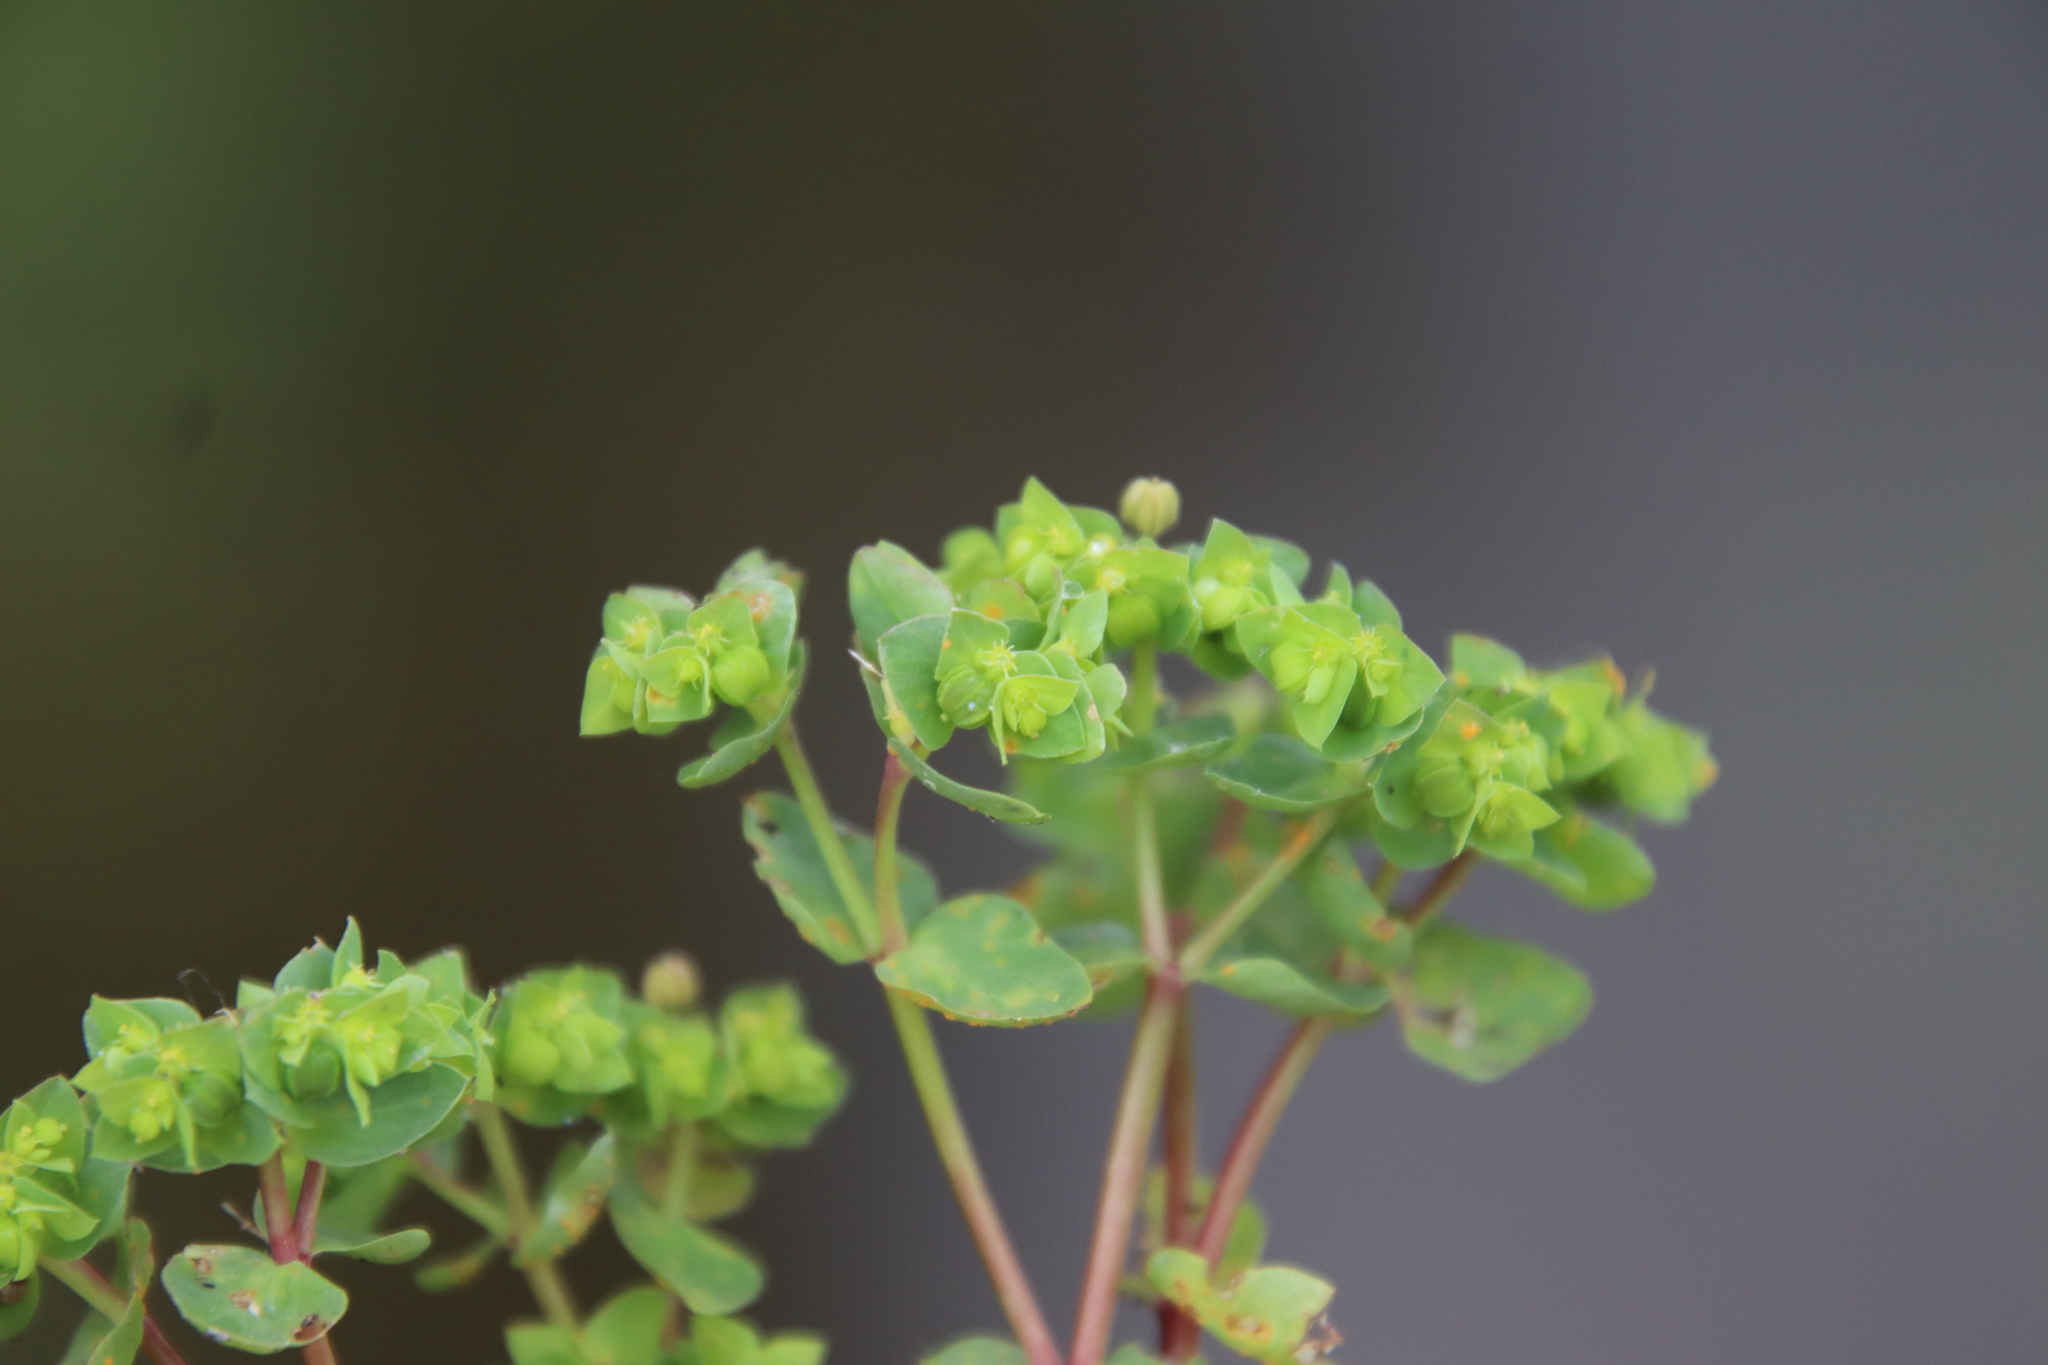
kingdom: Plantae
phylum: Tracheophyta
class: Magnoliopsida
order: Malpighiales
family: Euphorbiaceae
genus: Euphorbia
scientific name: Euphorbia peplus
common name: Petty spurge
